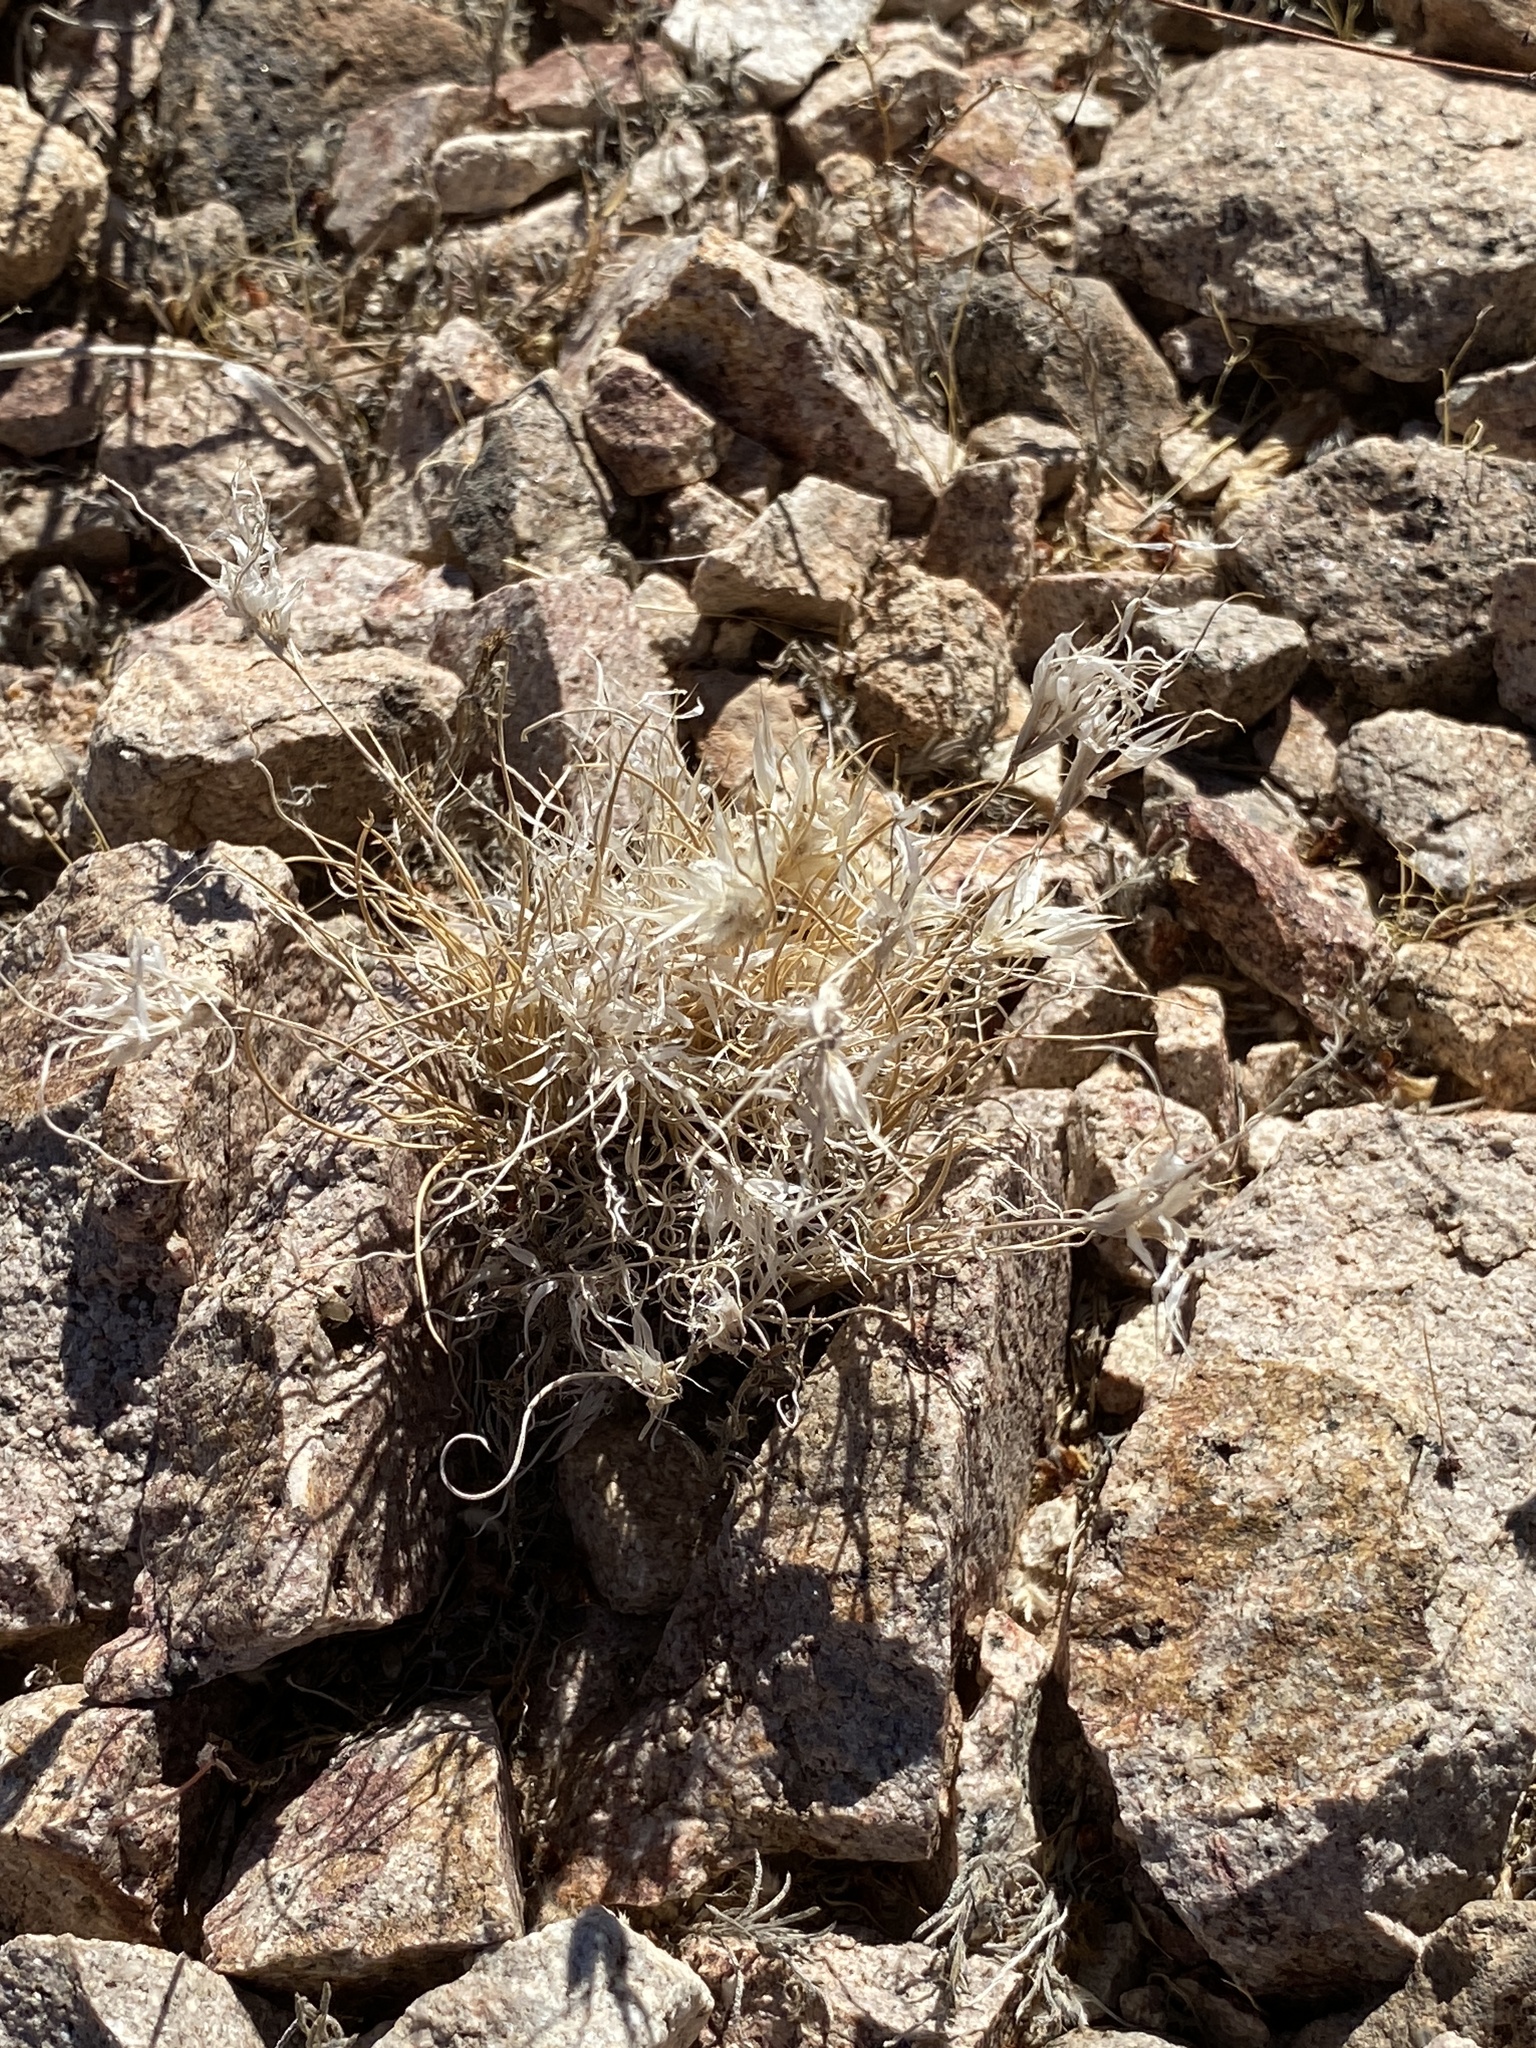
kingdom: Plantae
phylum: Tracheophyta
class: Liliopsida
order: Poales
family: Poaceae
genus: Dasyochloa
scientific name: Dasyochloa pulchella
